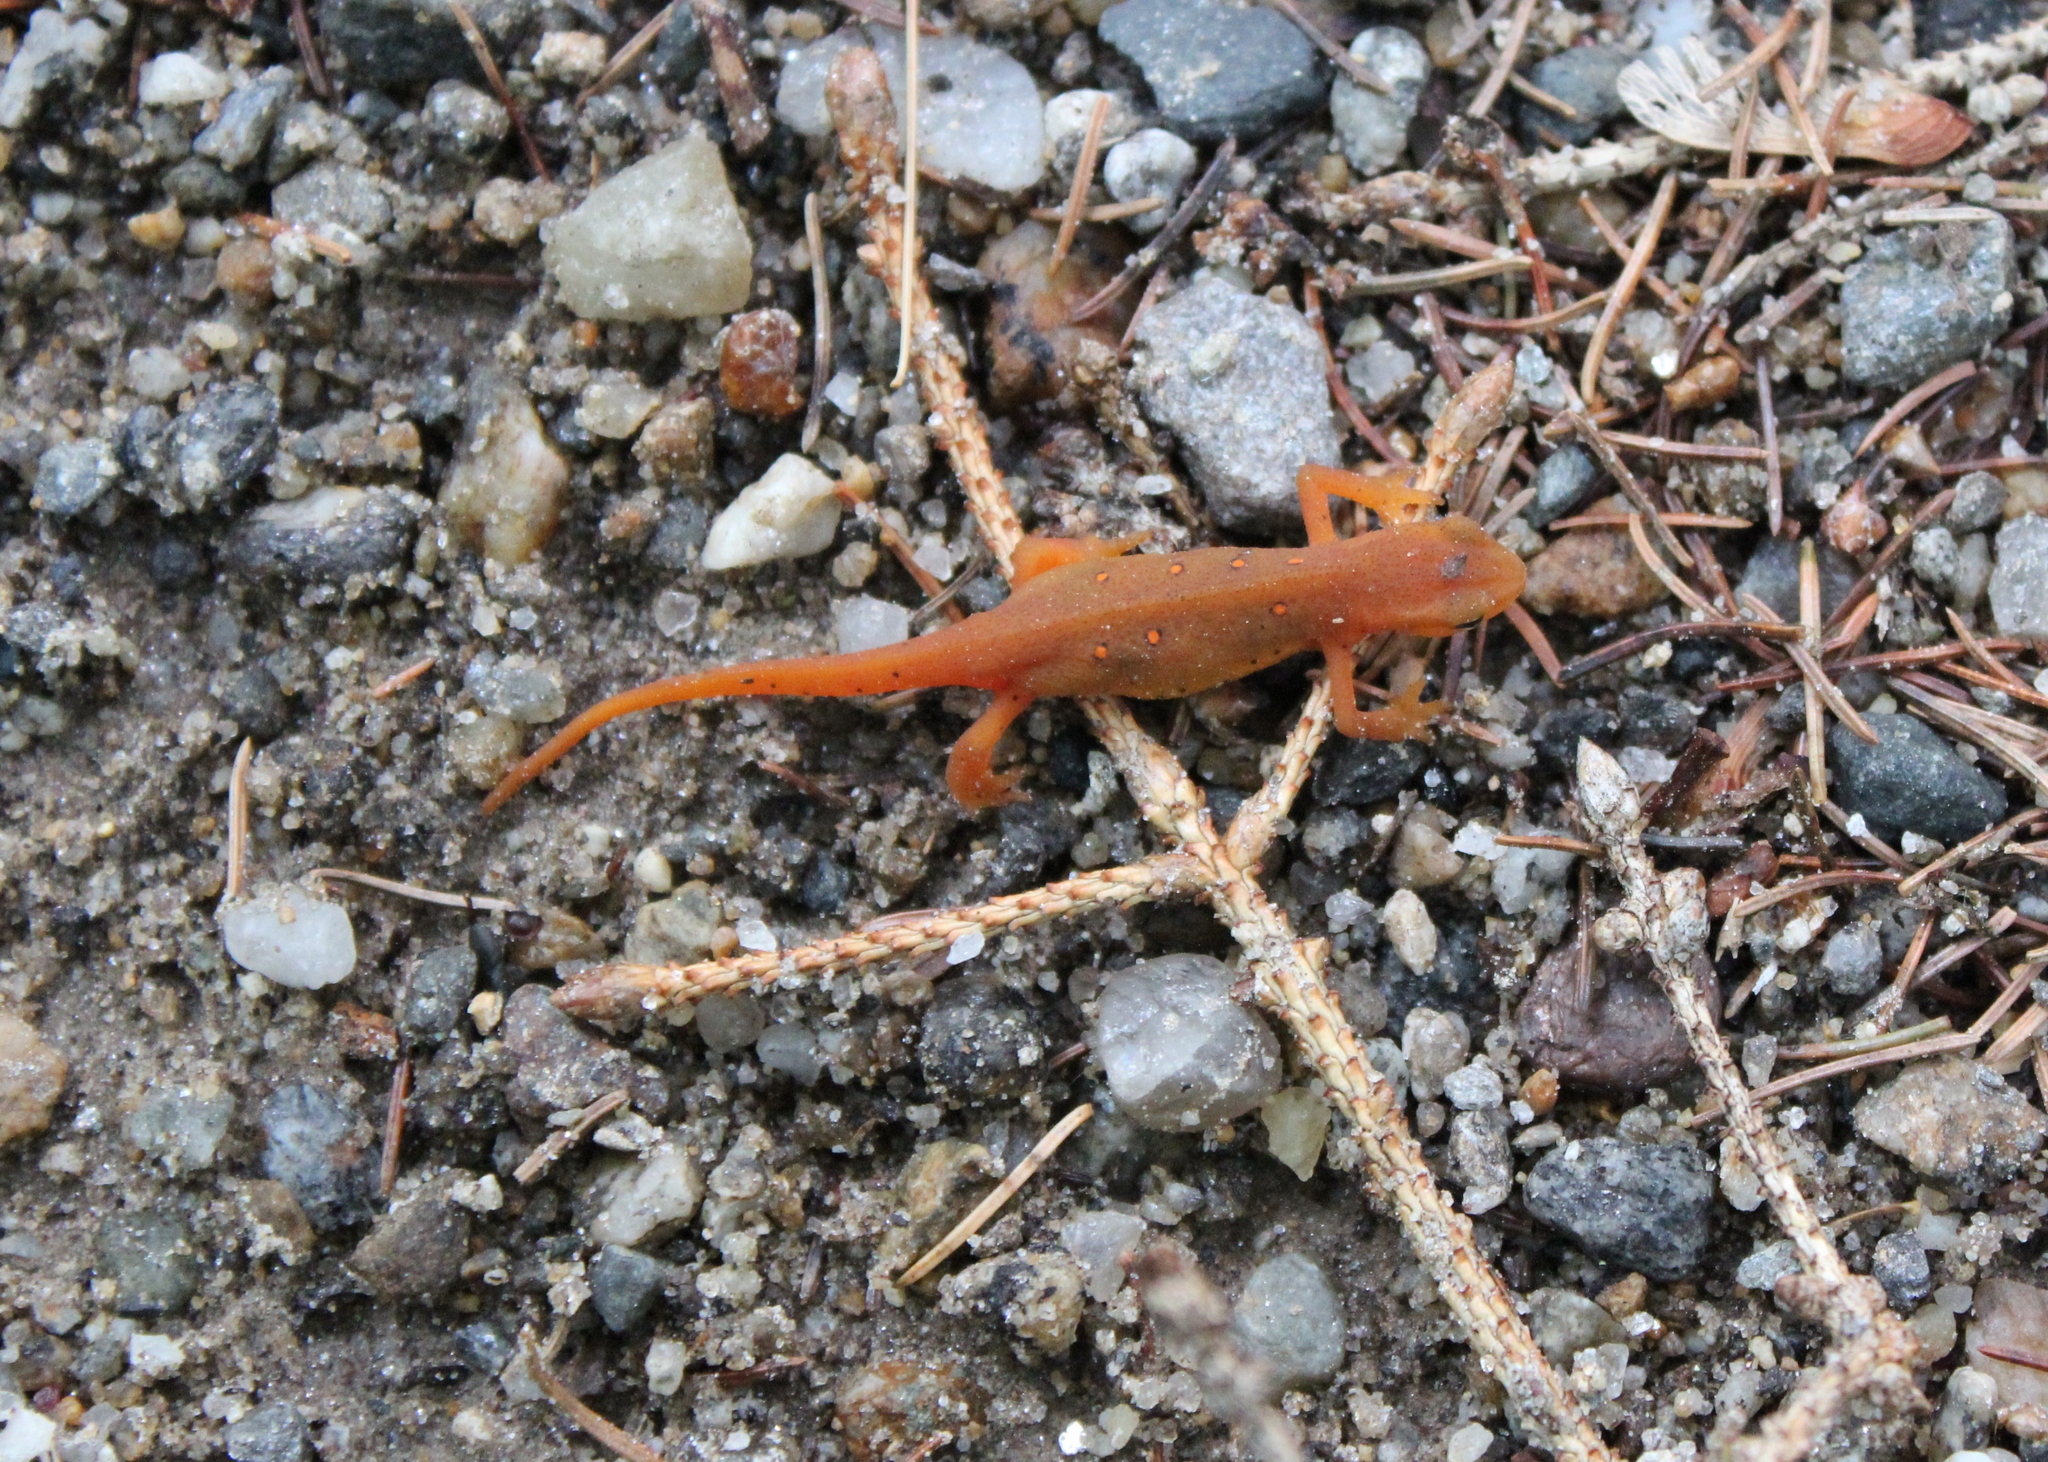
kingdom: Animalia
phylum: Chordata
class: Amphibia
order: Caudata
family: Salamandridae
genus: Notophthalmus
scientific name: Notophthalmus viridescens
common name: Eastern newt
